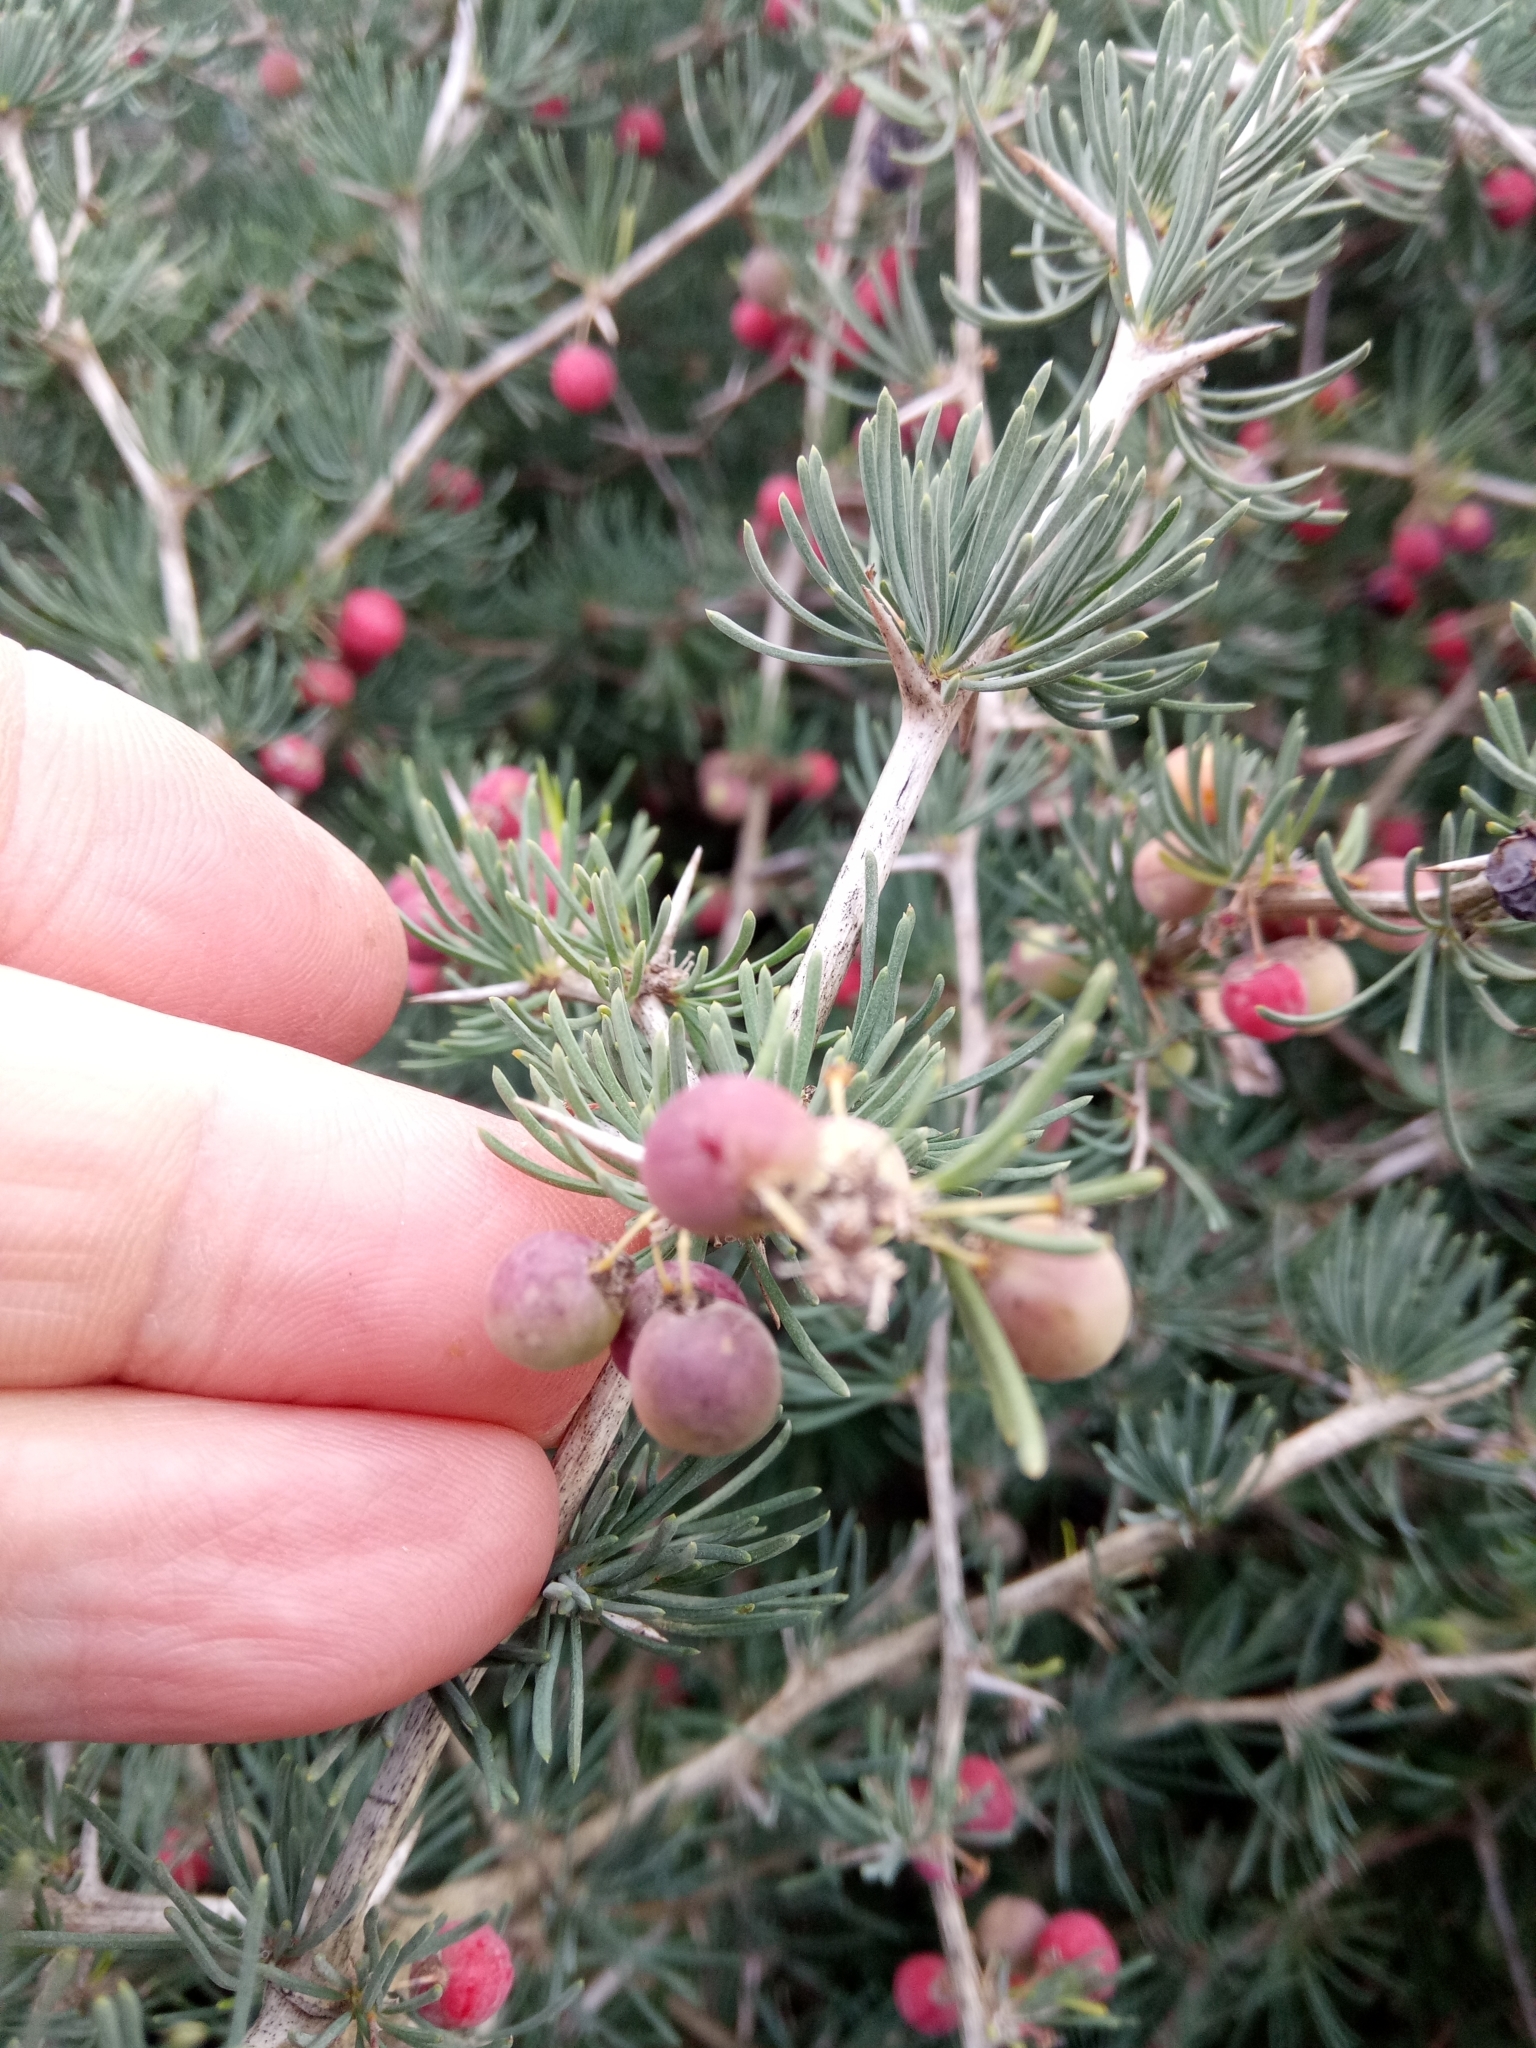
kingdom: Plantae
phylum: Tracheophyta
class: Liliopsida
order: Asparagales
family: Asparagaceae
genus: Asparagus
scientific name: Asparagus albus
